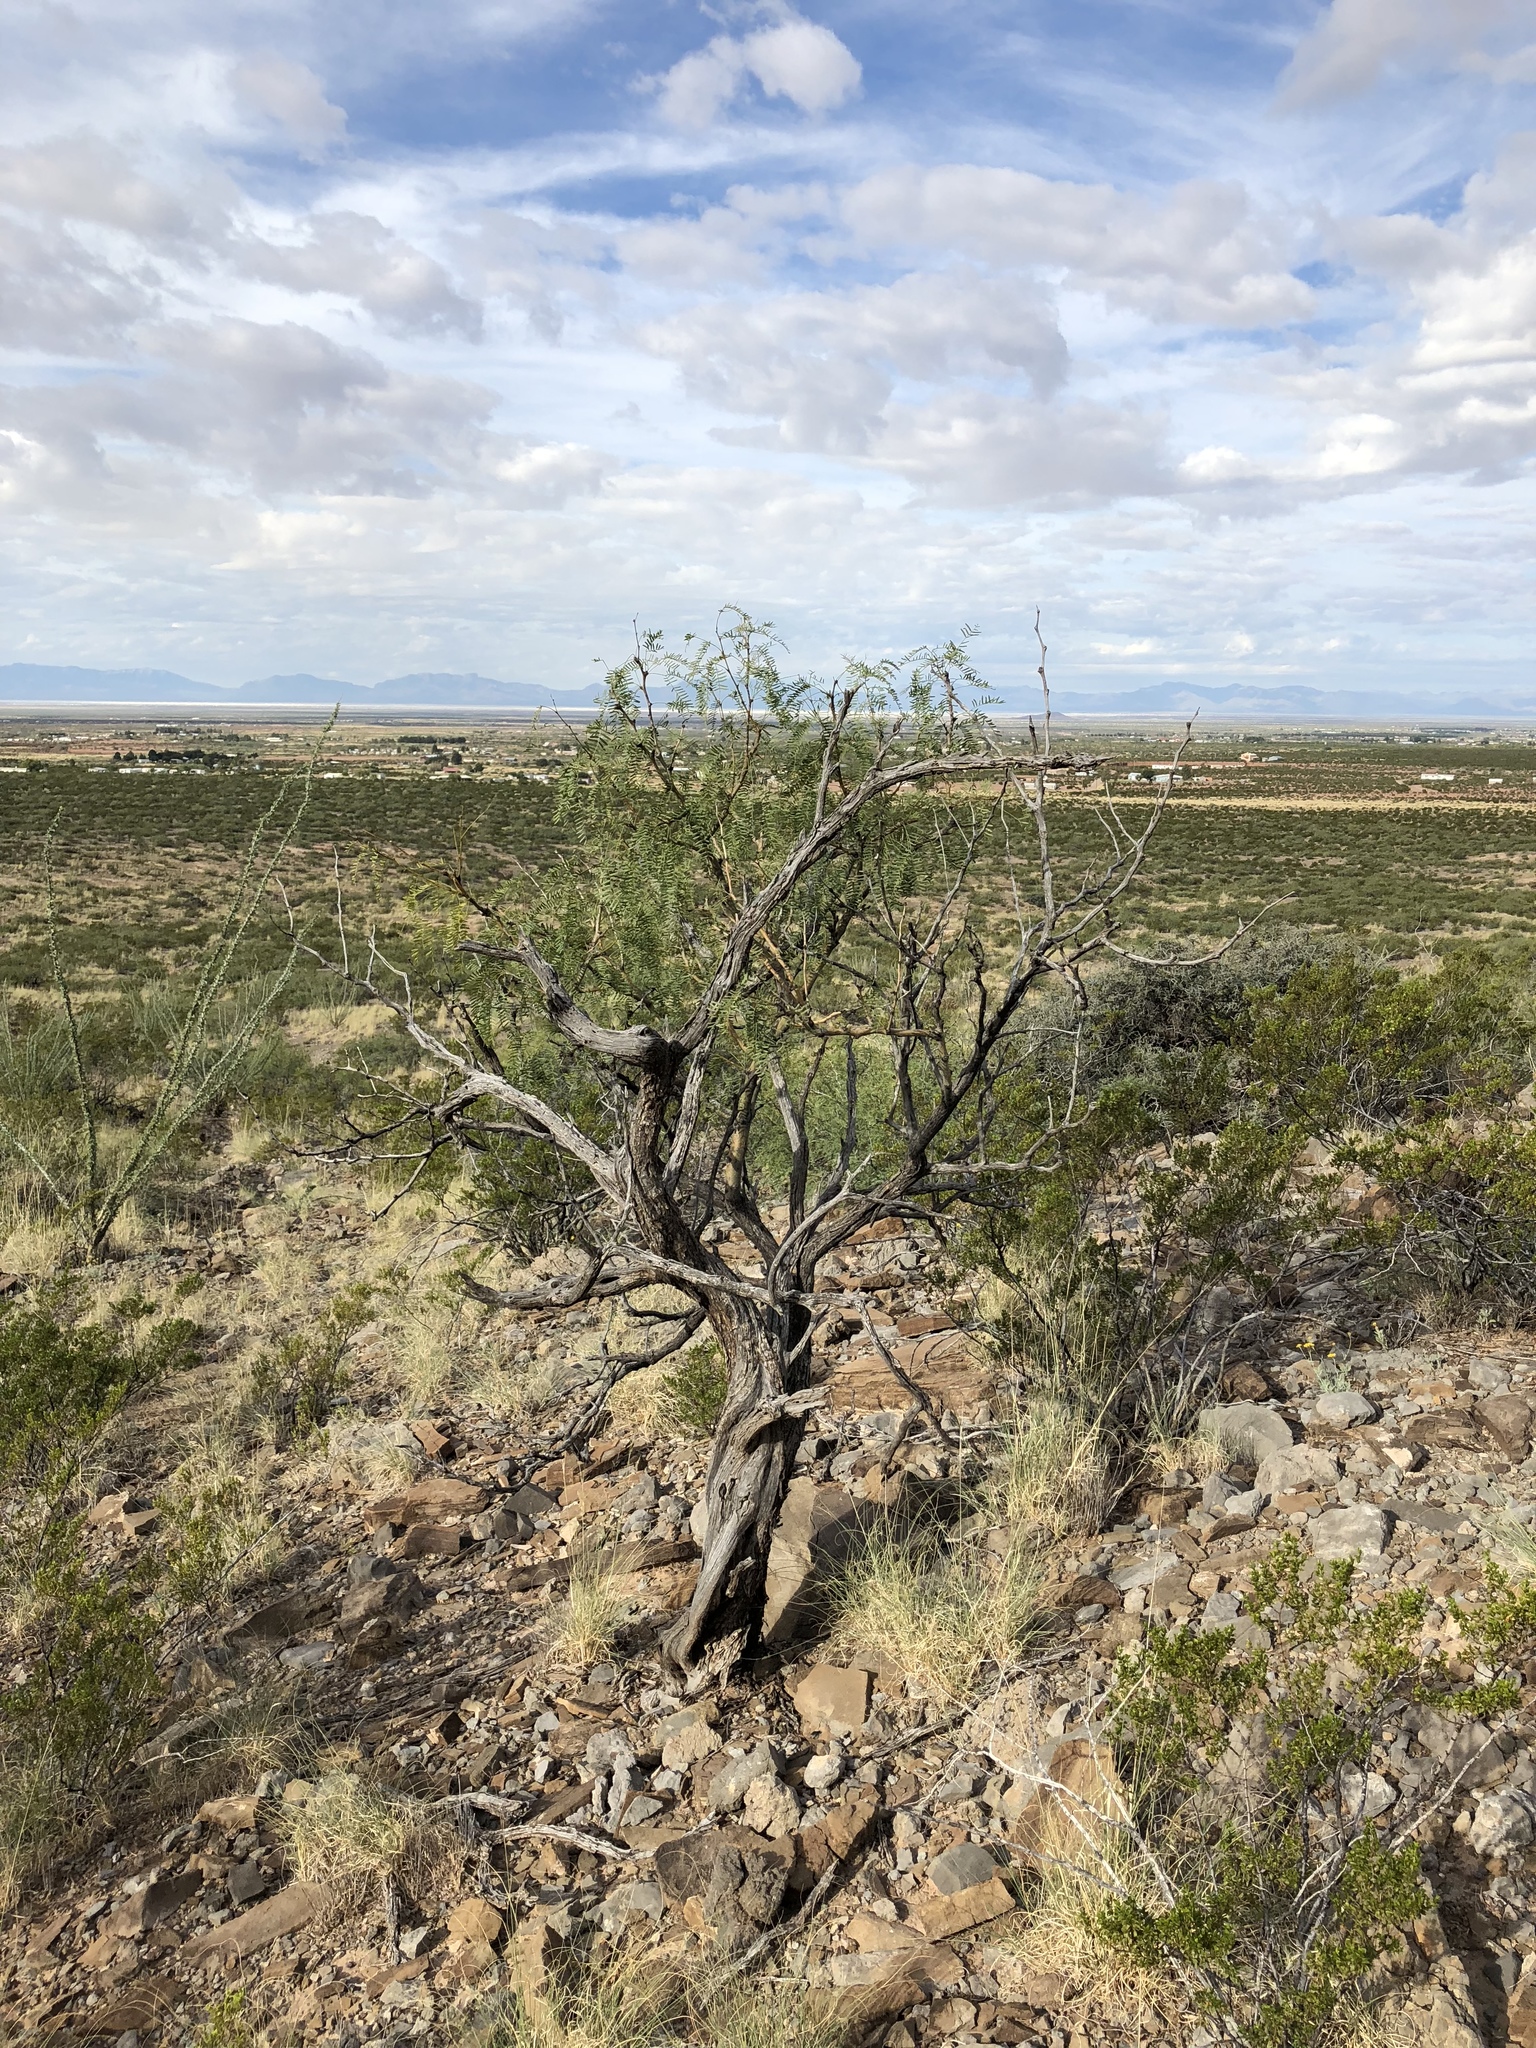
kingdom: Plantae
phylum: Tracheophyta
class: Magnoliopsida
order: Fabales
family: Fabaceae
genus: Prosopis
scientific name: Prosopis glandulosa
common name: Honey mesquite
